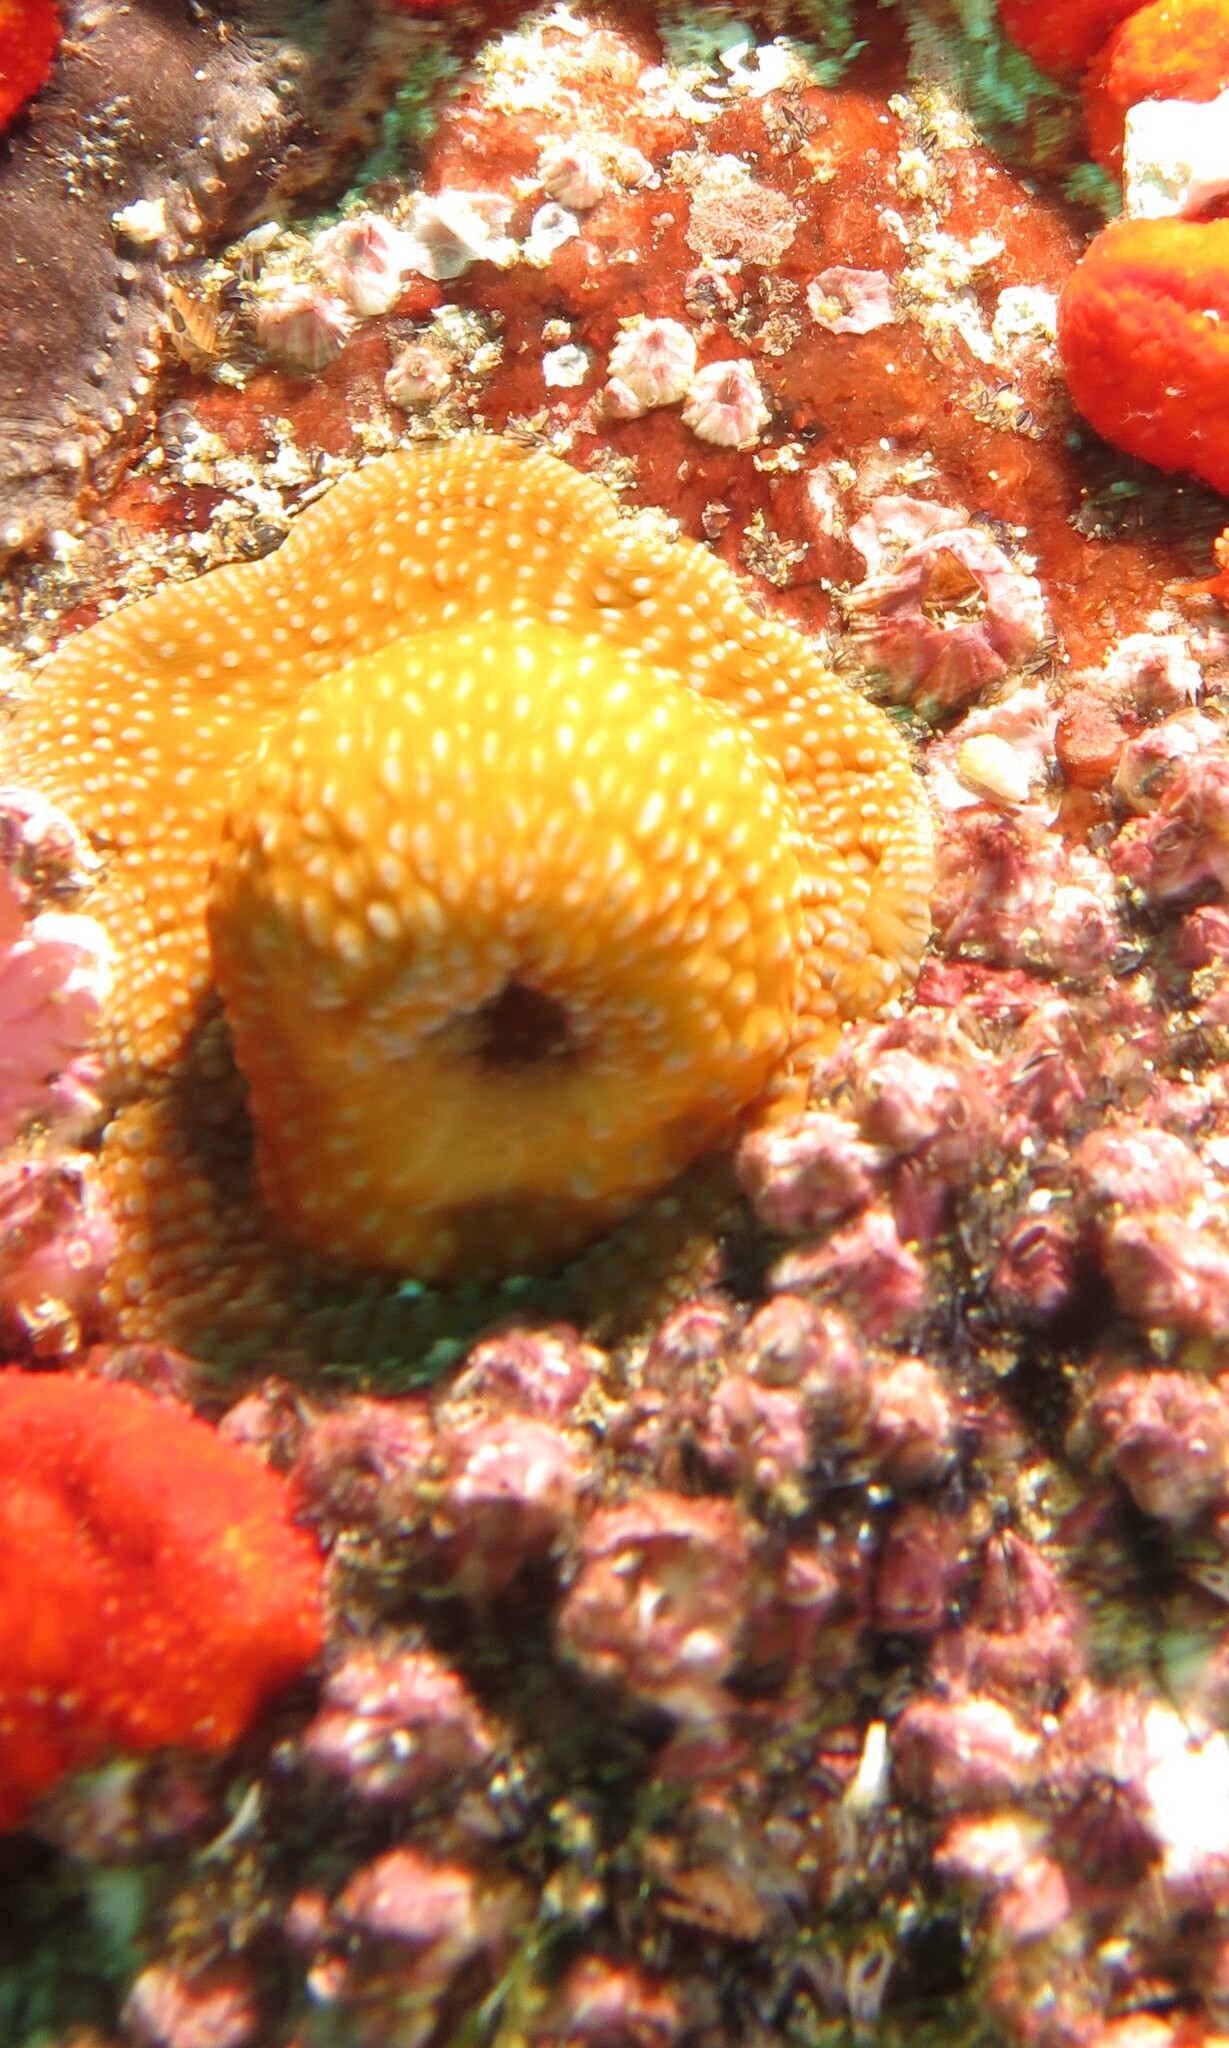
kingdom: Animalia
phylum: Cnidaria
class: Anthozoa
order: Actiniaria
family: Actiniidae
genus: Bunodosoma
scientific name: Bunodosoma capense
